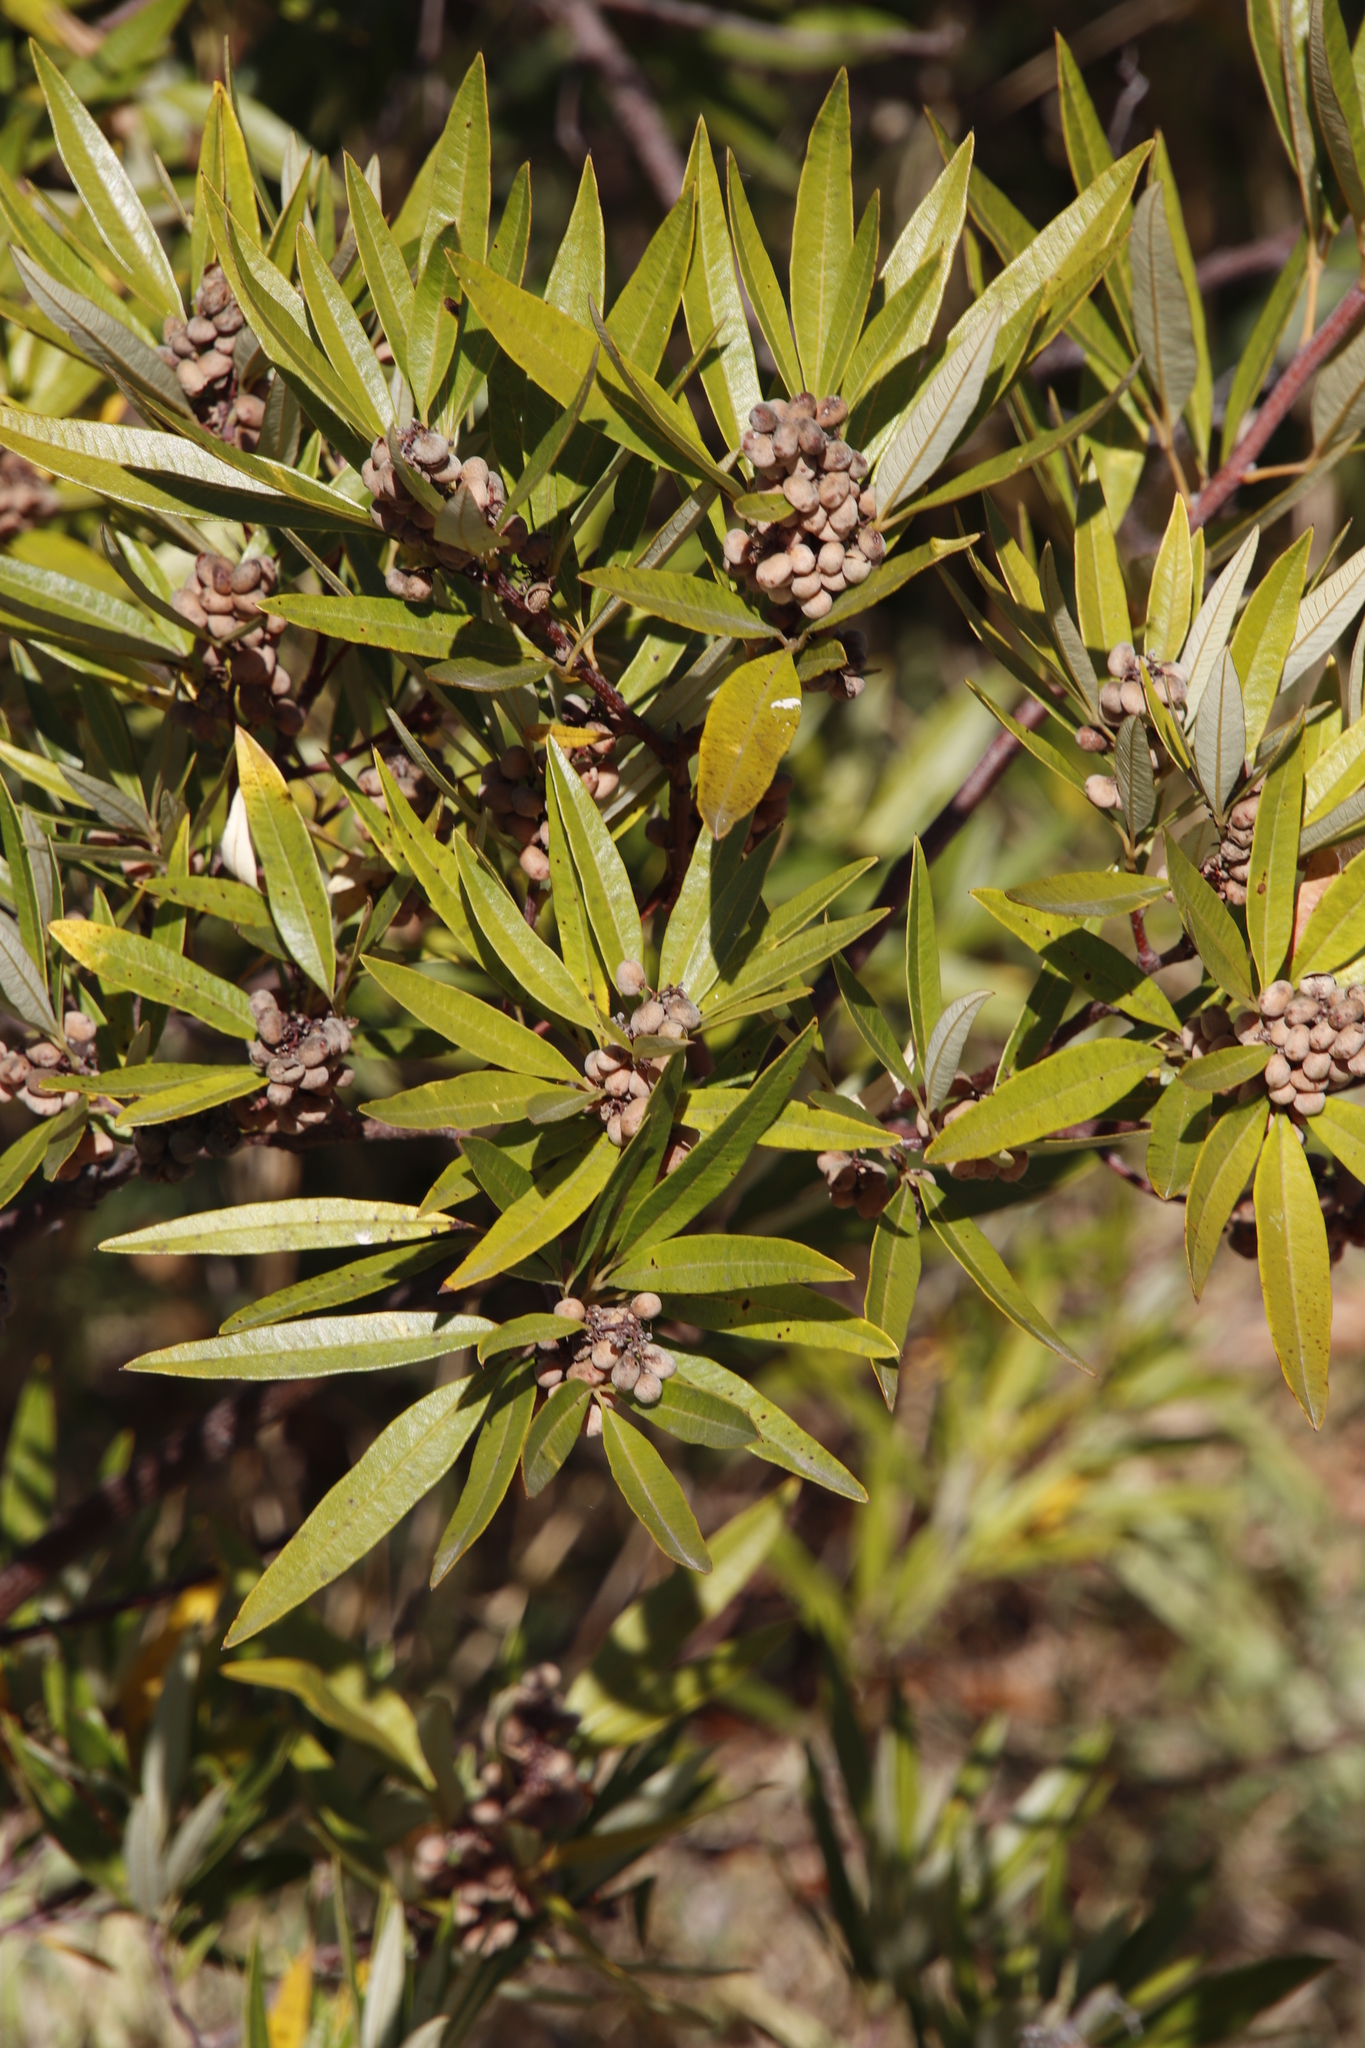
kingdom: Plantae
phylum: Tracheophyta
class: Magnoliopsida
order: Sapindales
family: Anacardiaceae
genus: Searsia
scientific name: Searsia angustifolia
